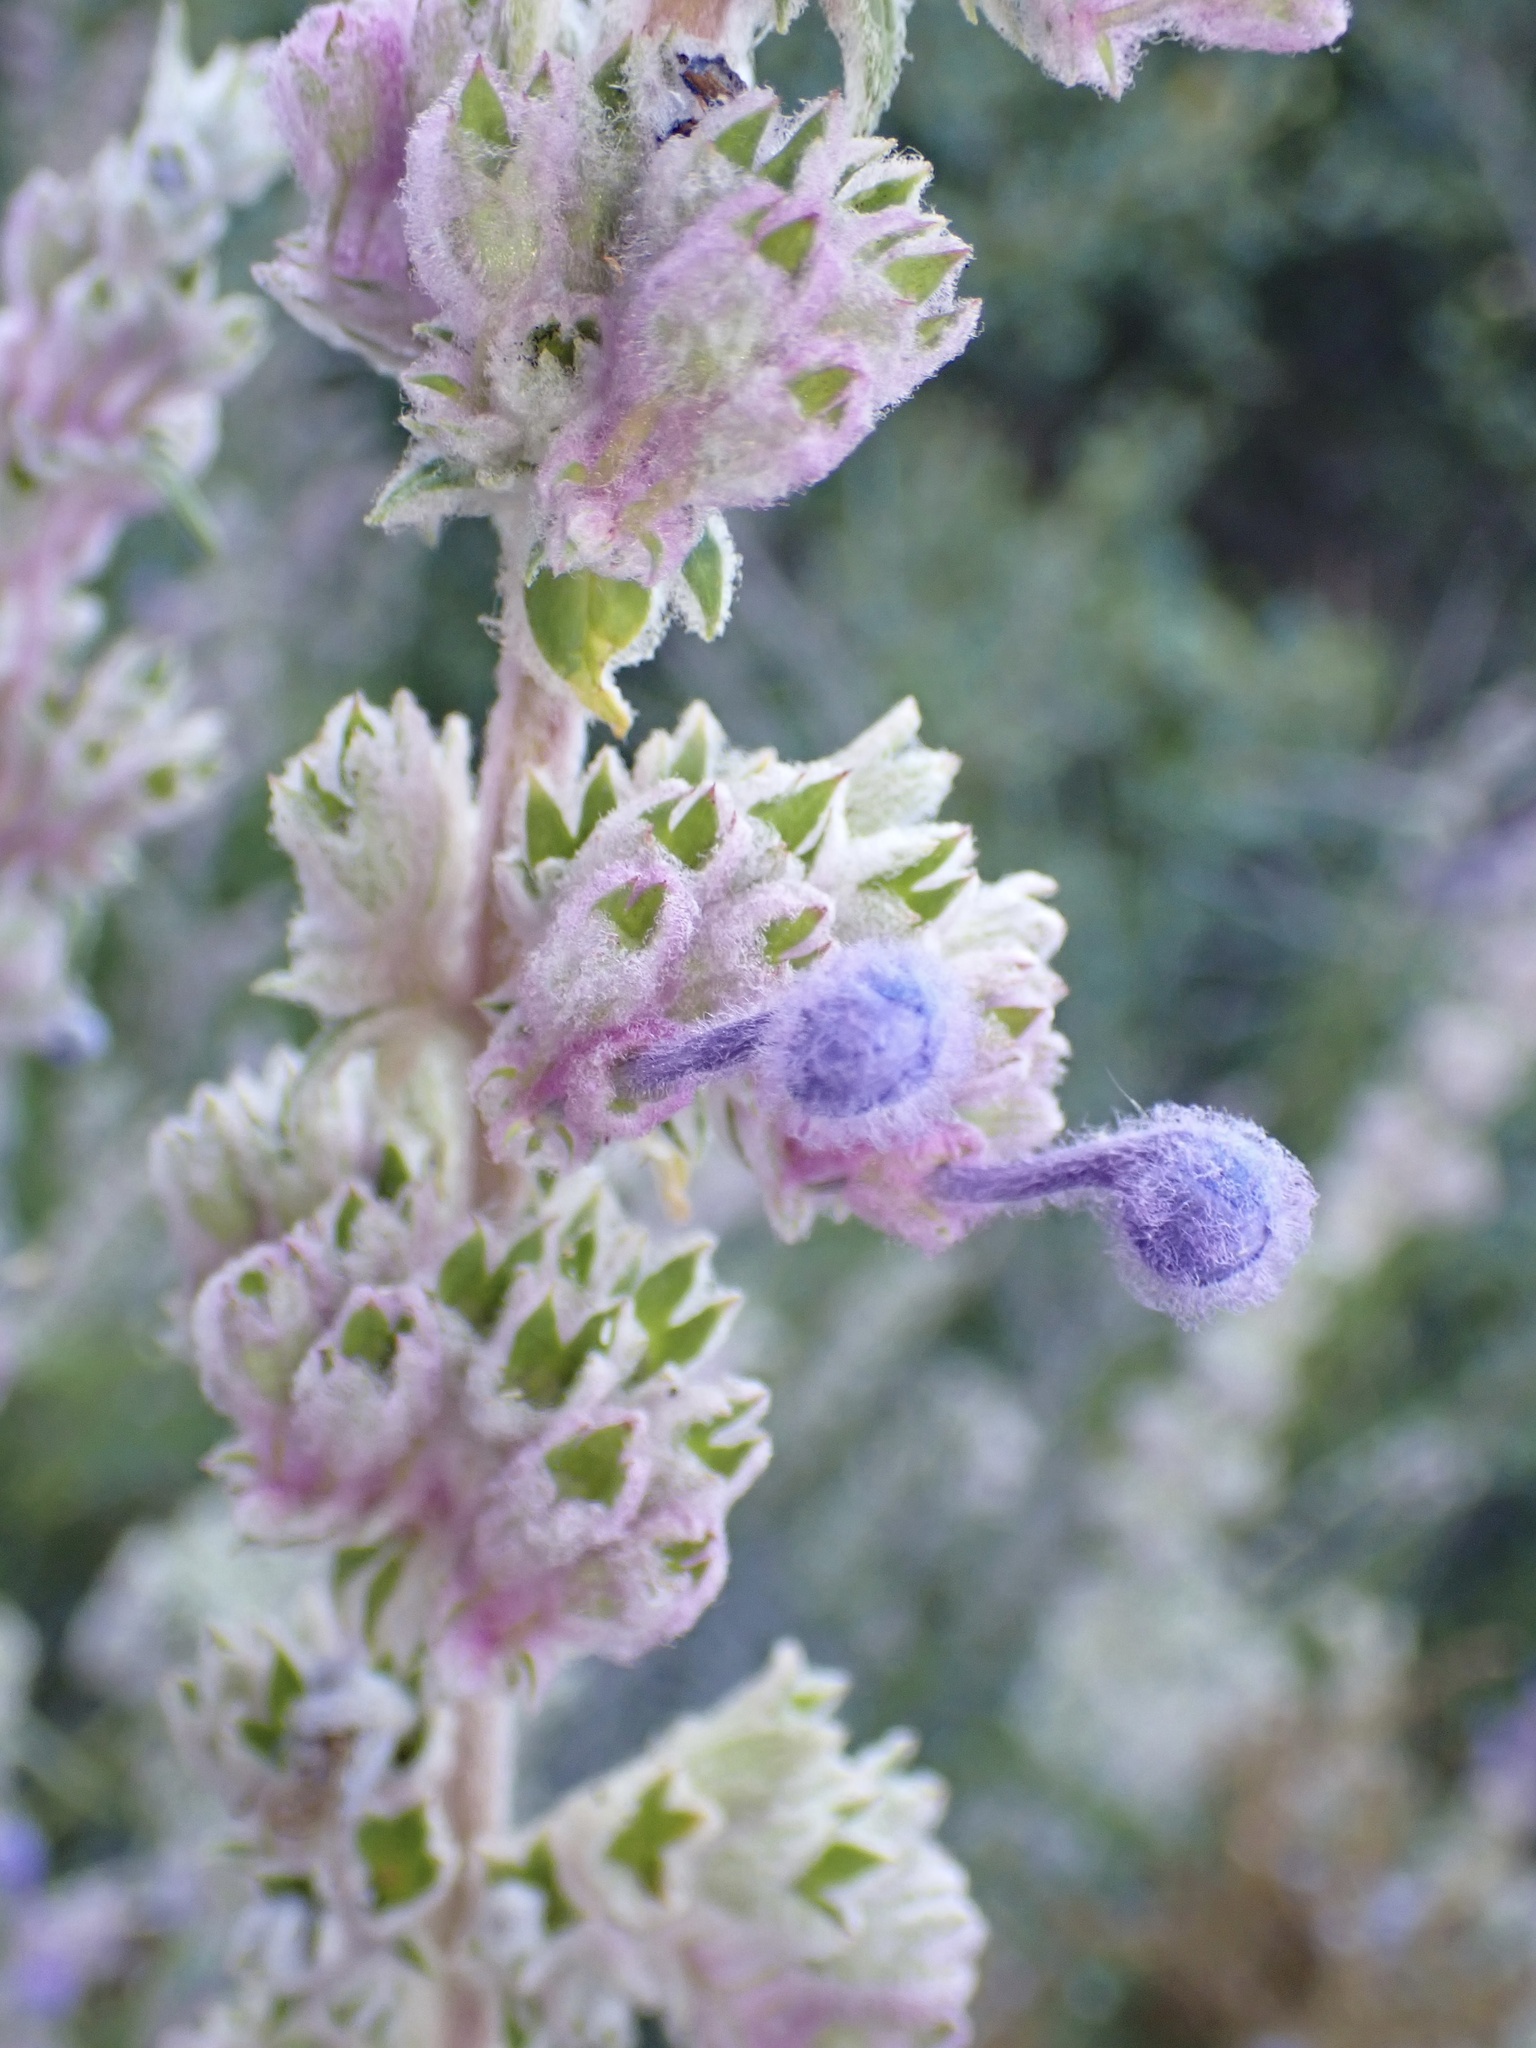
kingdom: Plantae
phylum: Tracheophyta
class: Magnoliopsida
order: Lamiales
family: Lamiaceae
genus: Trichostema
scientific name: Trichostema lanatum
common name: Woolly bluecurls
